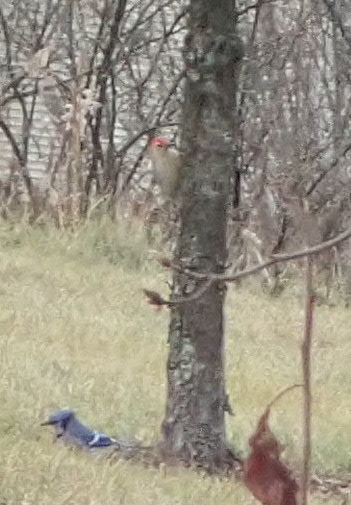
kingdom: Animalia
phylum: Chordata
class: Aves
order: Passeriformes
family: Corvidae
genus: Cyanocitta
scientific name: Cyanocitta cristata
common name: Blue jay
